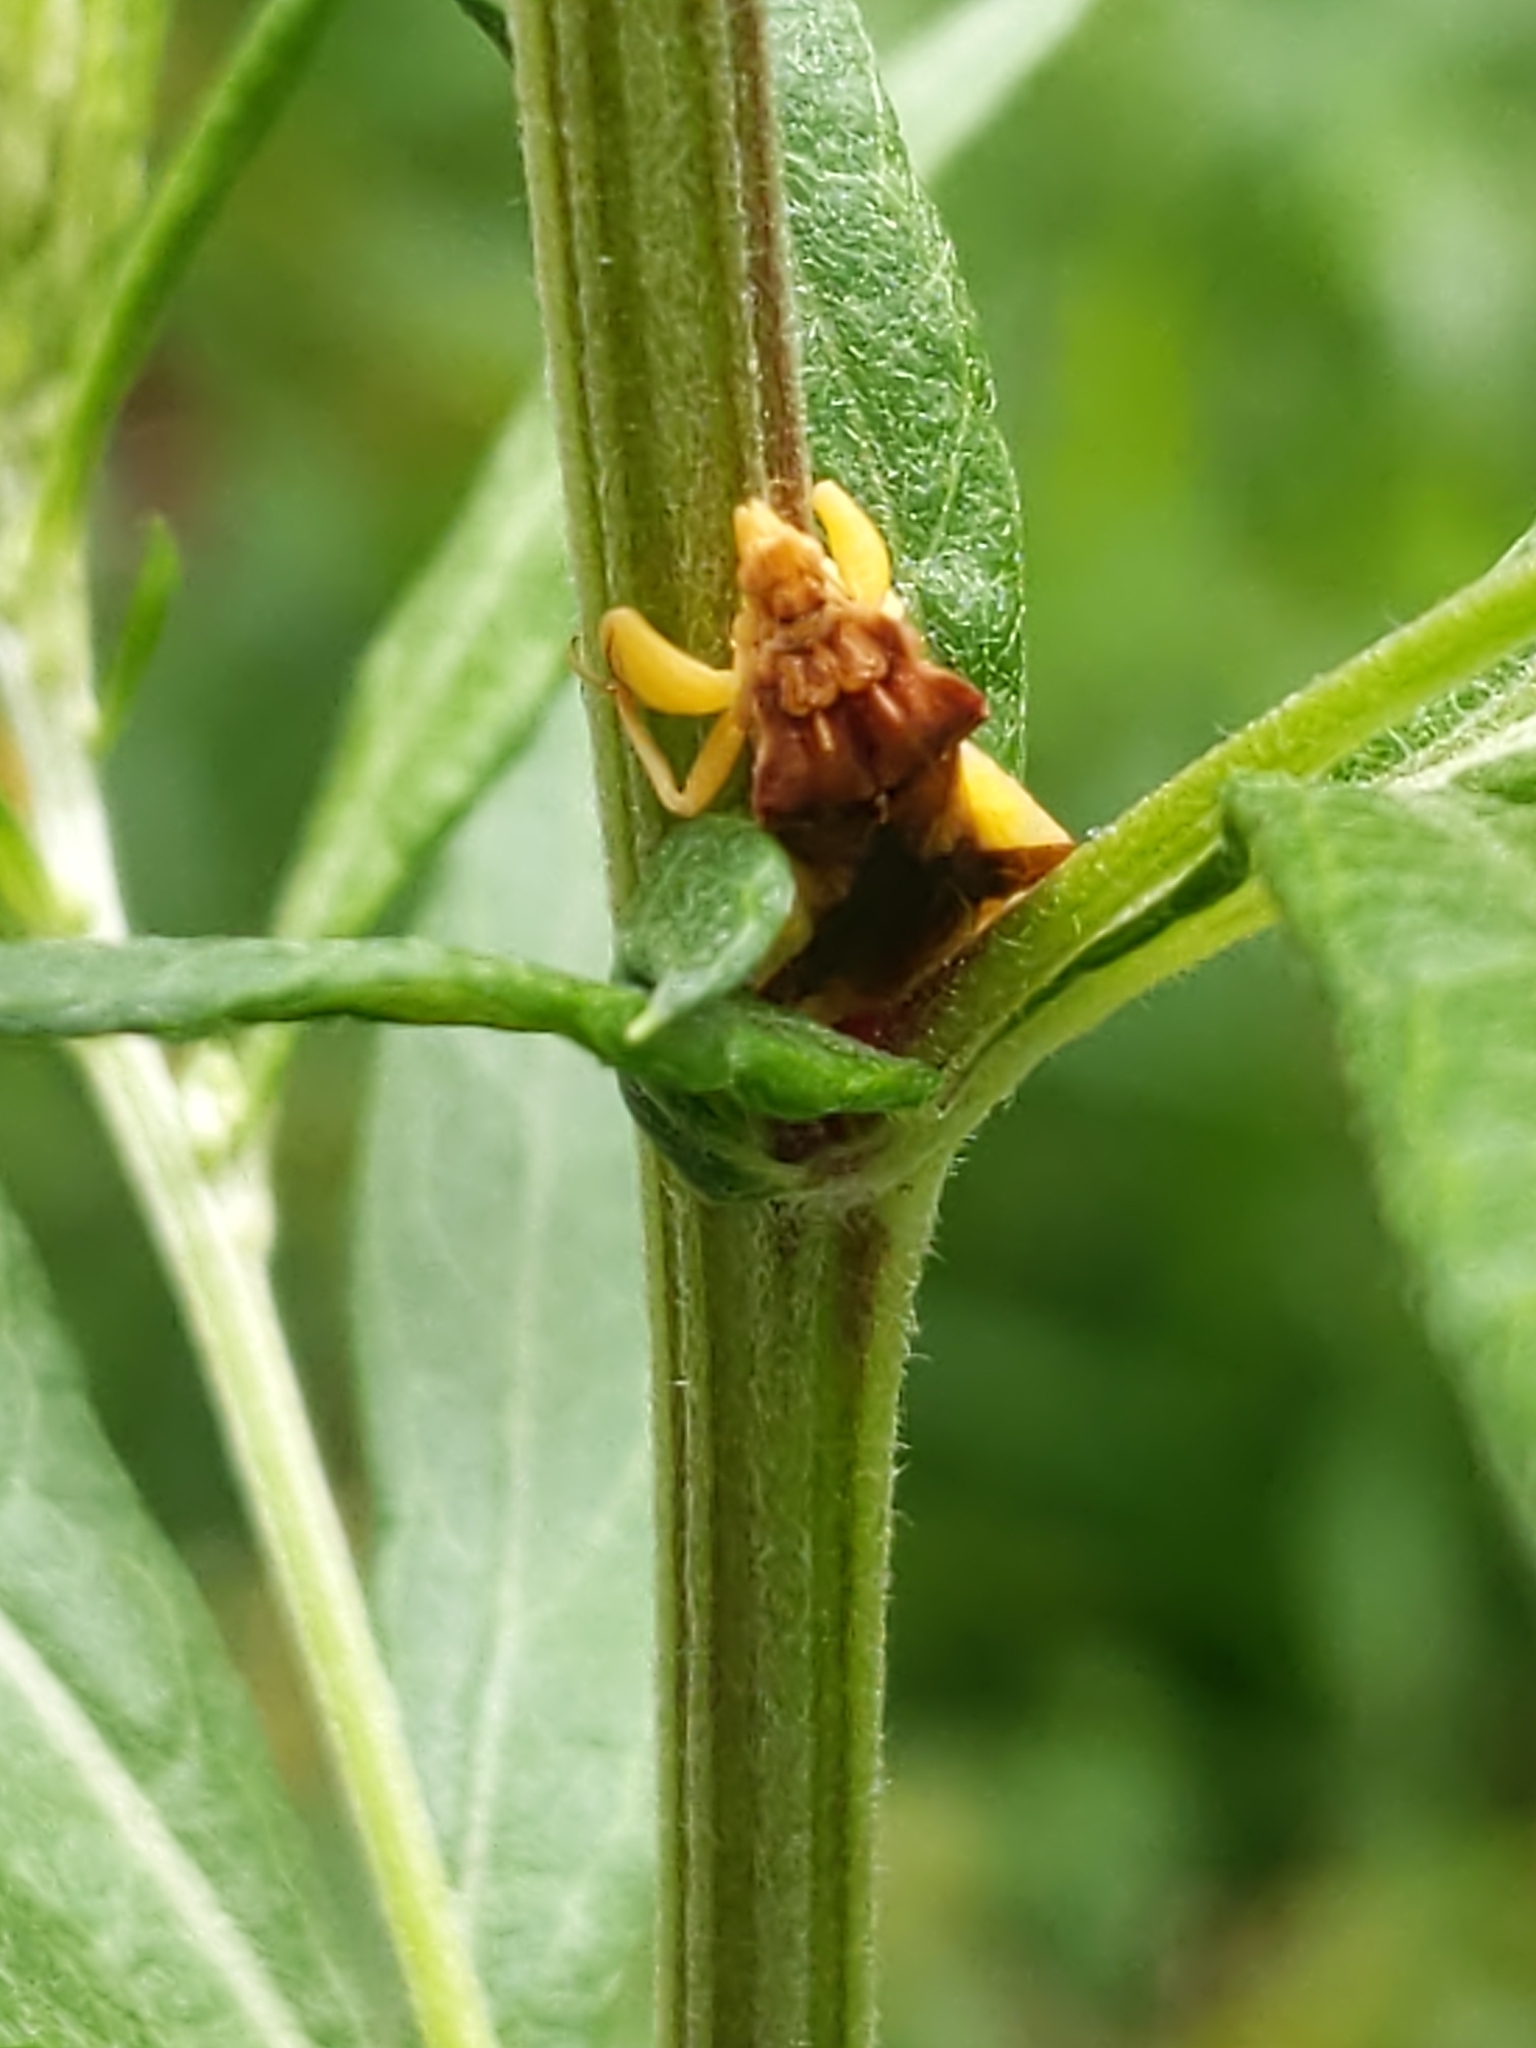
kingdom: Animalia
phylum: Arthropoda
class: Insecta
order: Hemiptera
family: Reduviidae
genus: Phymata
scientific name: Phymata pennsylvanica
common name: Pennsylvania ambush bug
